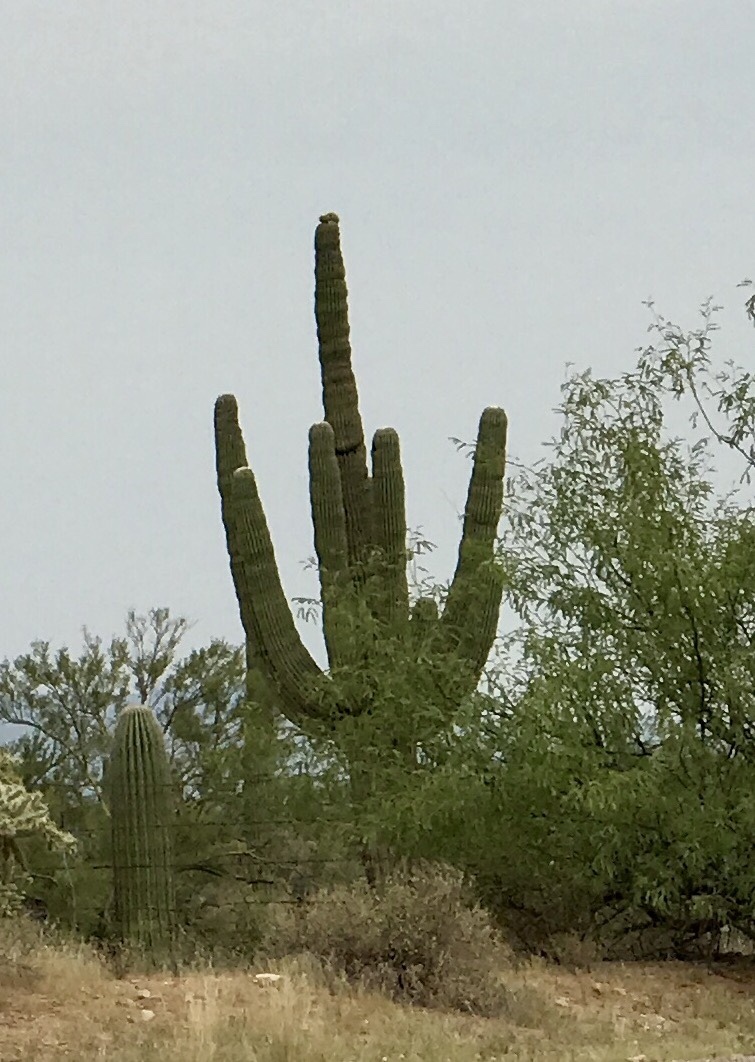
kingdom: Plantae
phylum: Tracheophyta
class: Magnoliopsida
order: Caryophyllales
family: Cactaceae
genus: Carnegiea
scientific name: Carnegiea gigantea
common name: Saguaro
